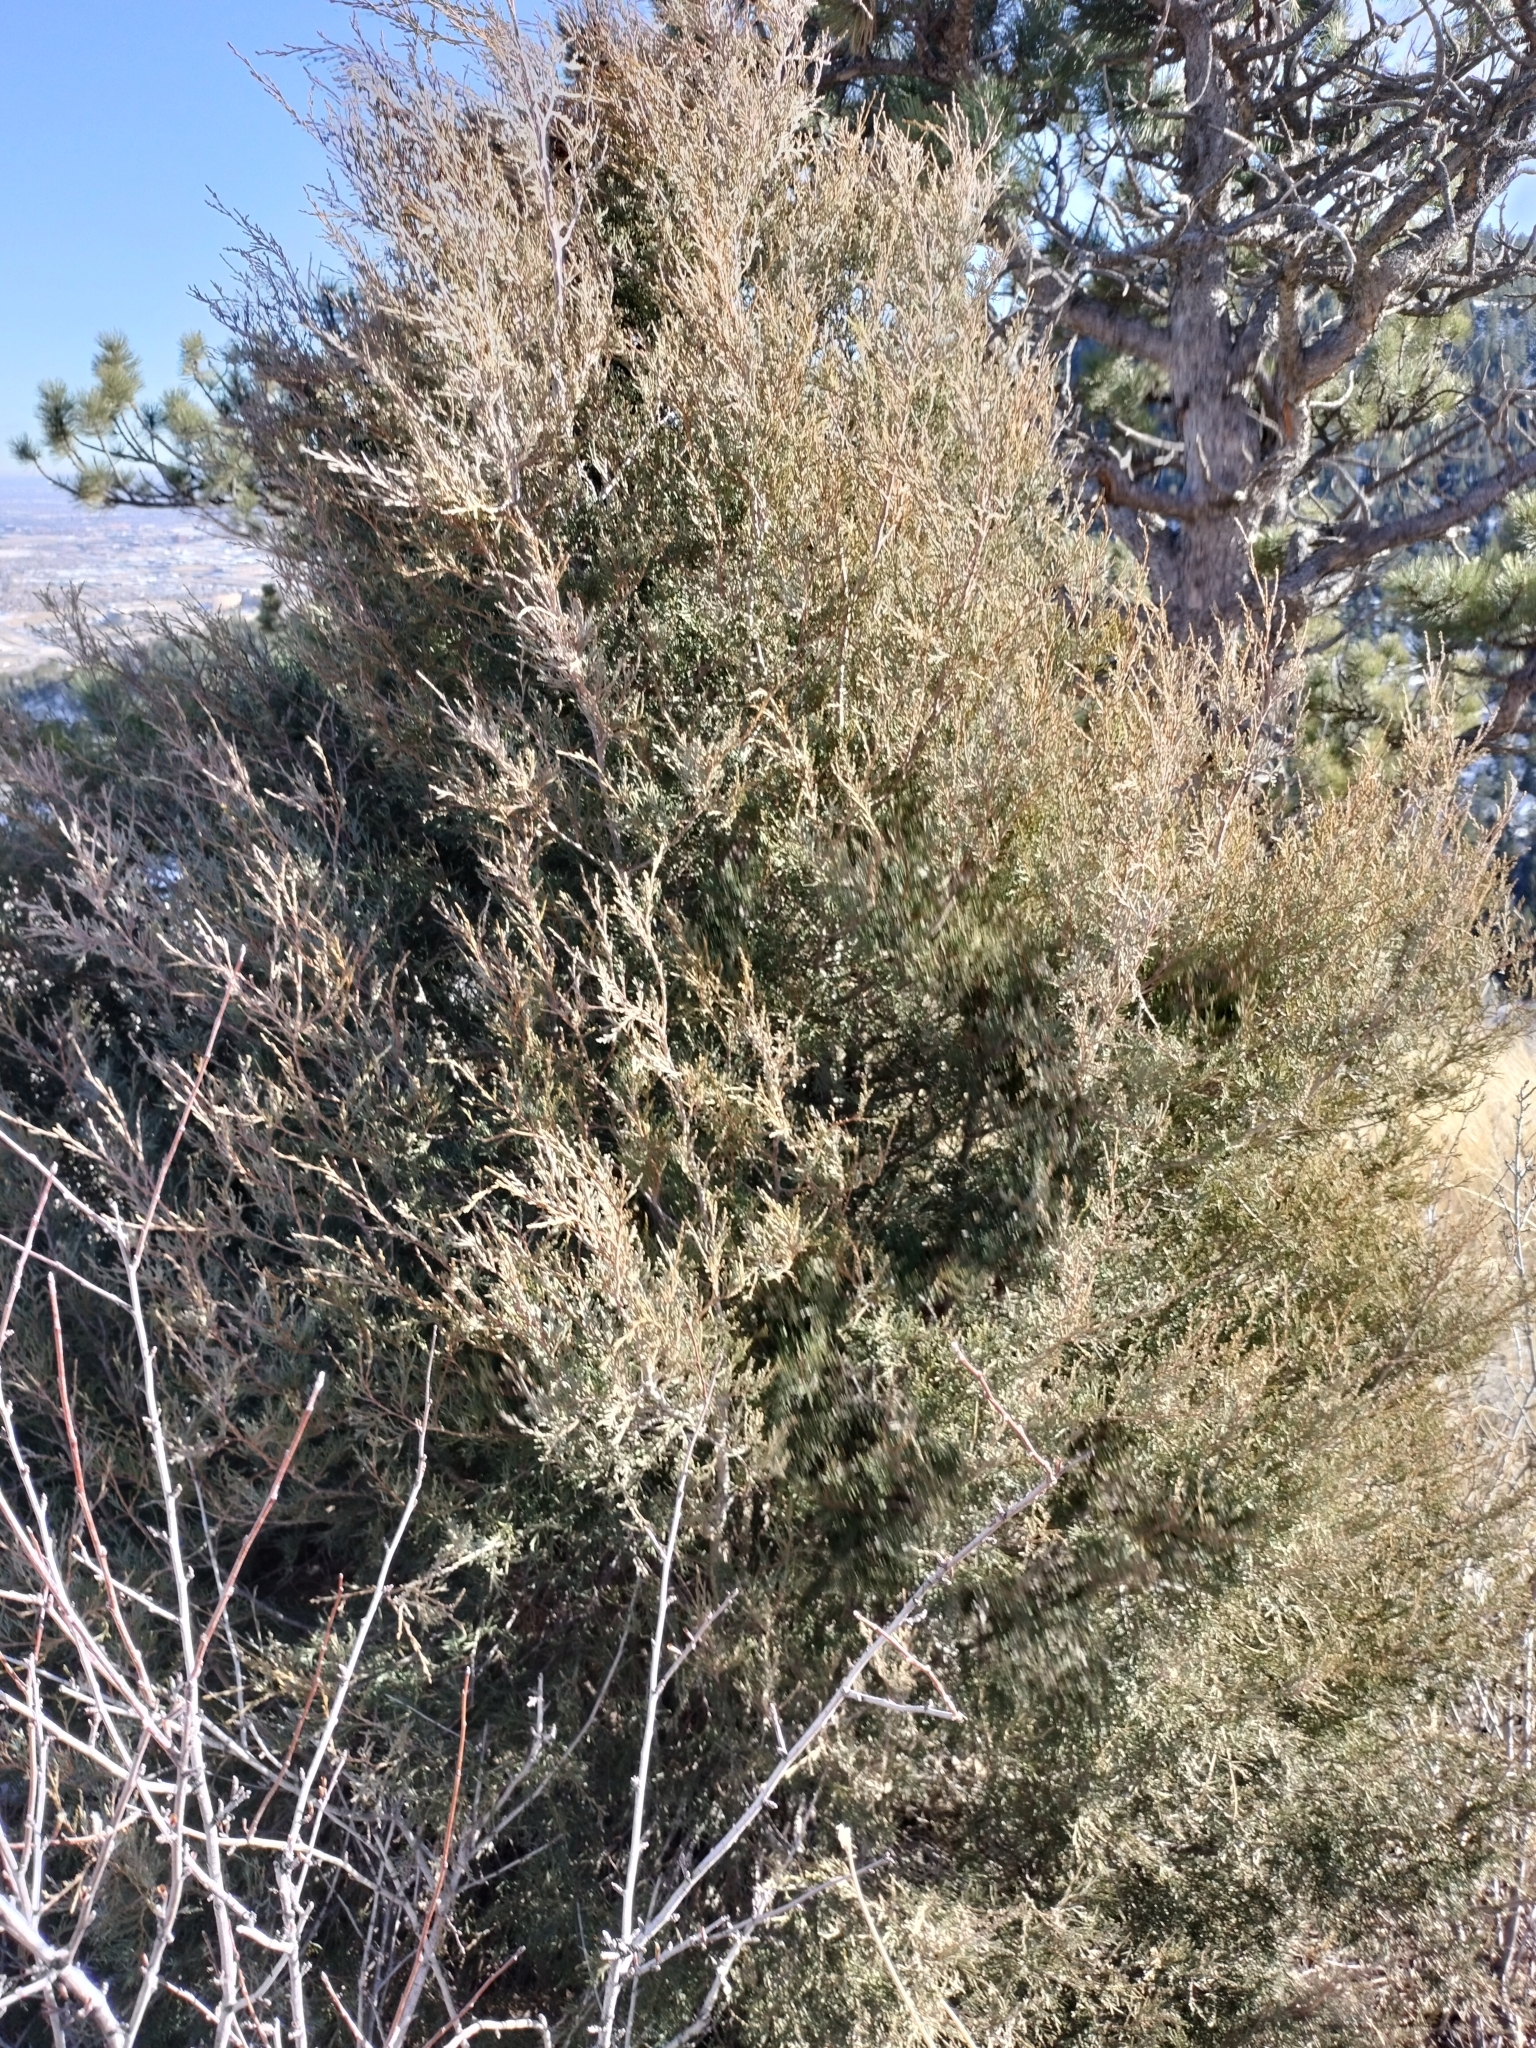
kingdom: Plantae
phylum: Tracheophyta
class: Pinopsida
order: Pinales
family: Cupressaceae
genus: Juniperus
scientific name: Juniperus scopulorum
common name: Rocky mountain juniper
